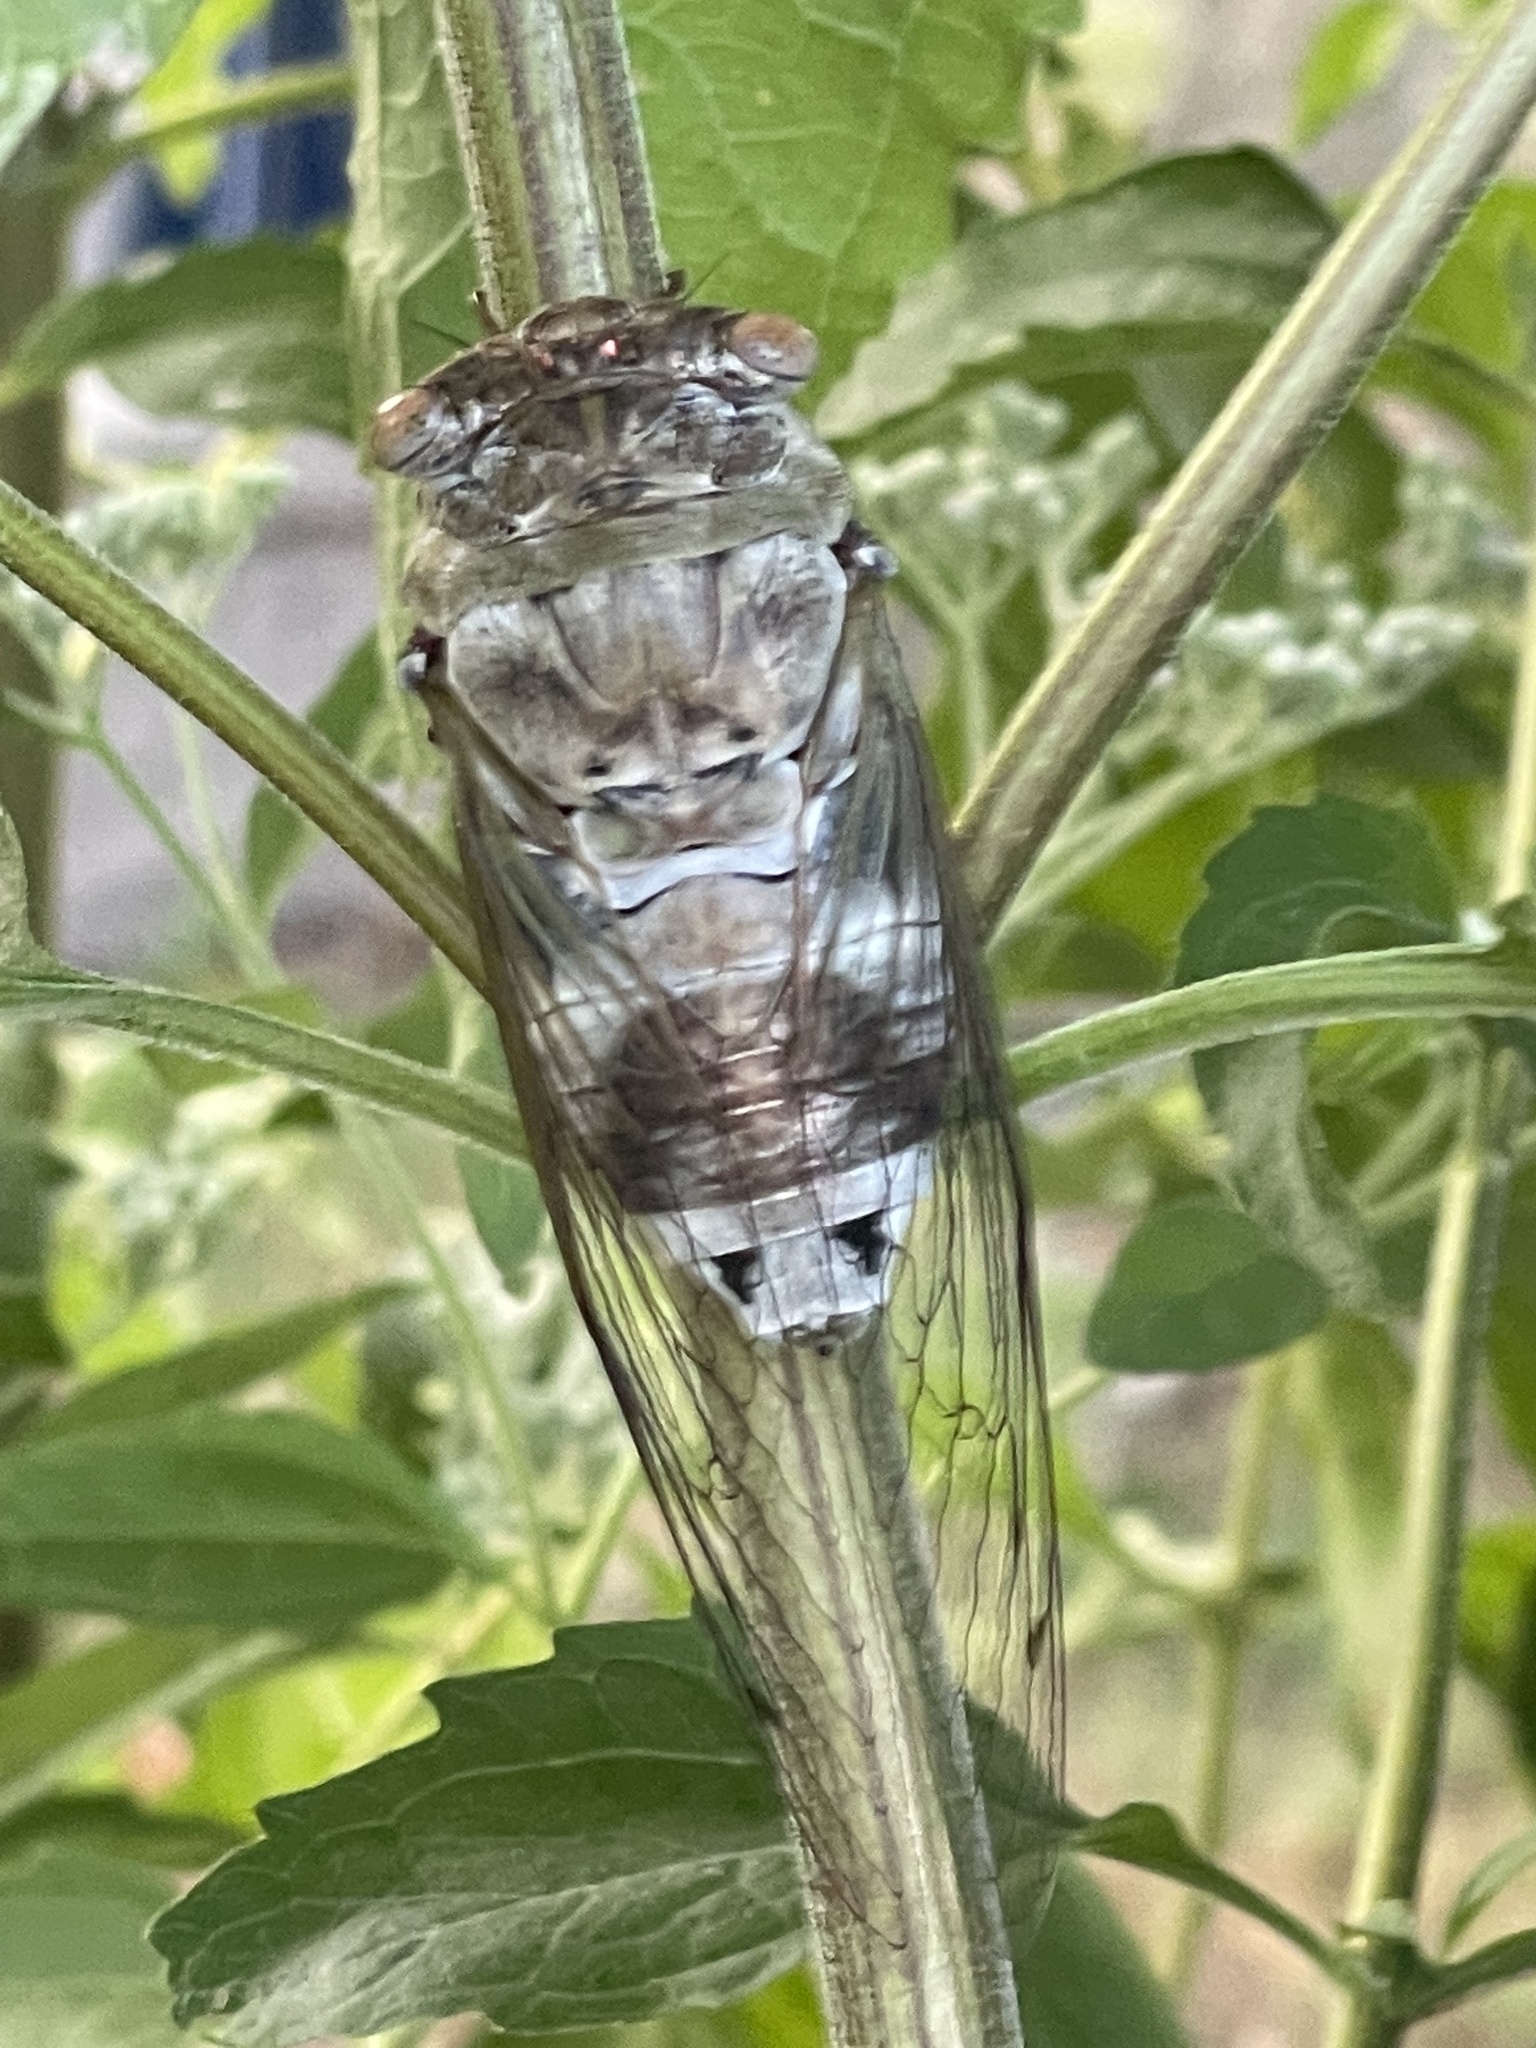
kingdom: Animalia
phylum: Arthropoda
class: Insecta
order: Hemiptera
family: Cicadidae
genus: Diceroprocta
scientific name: Diceroprocta grossa
